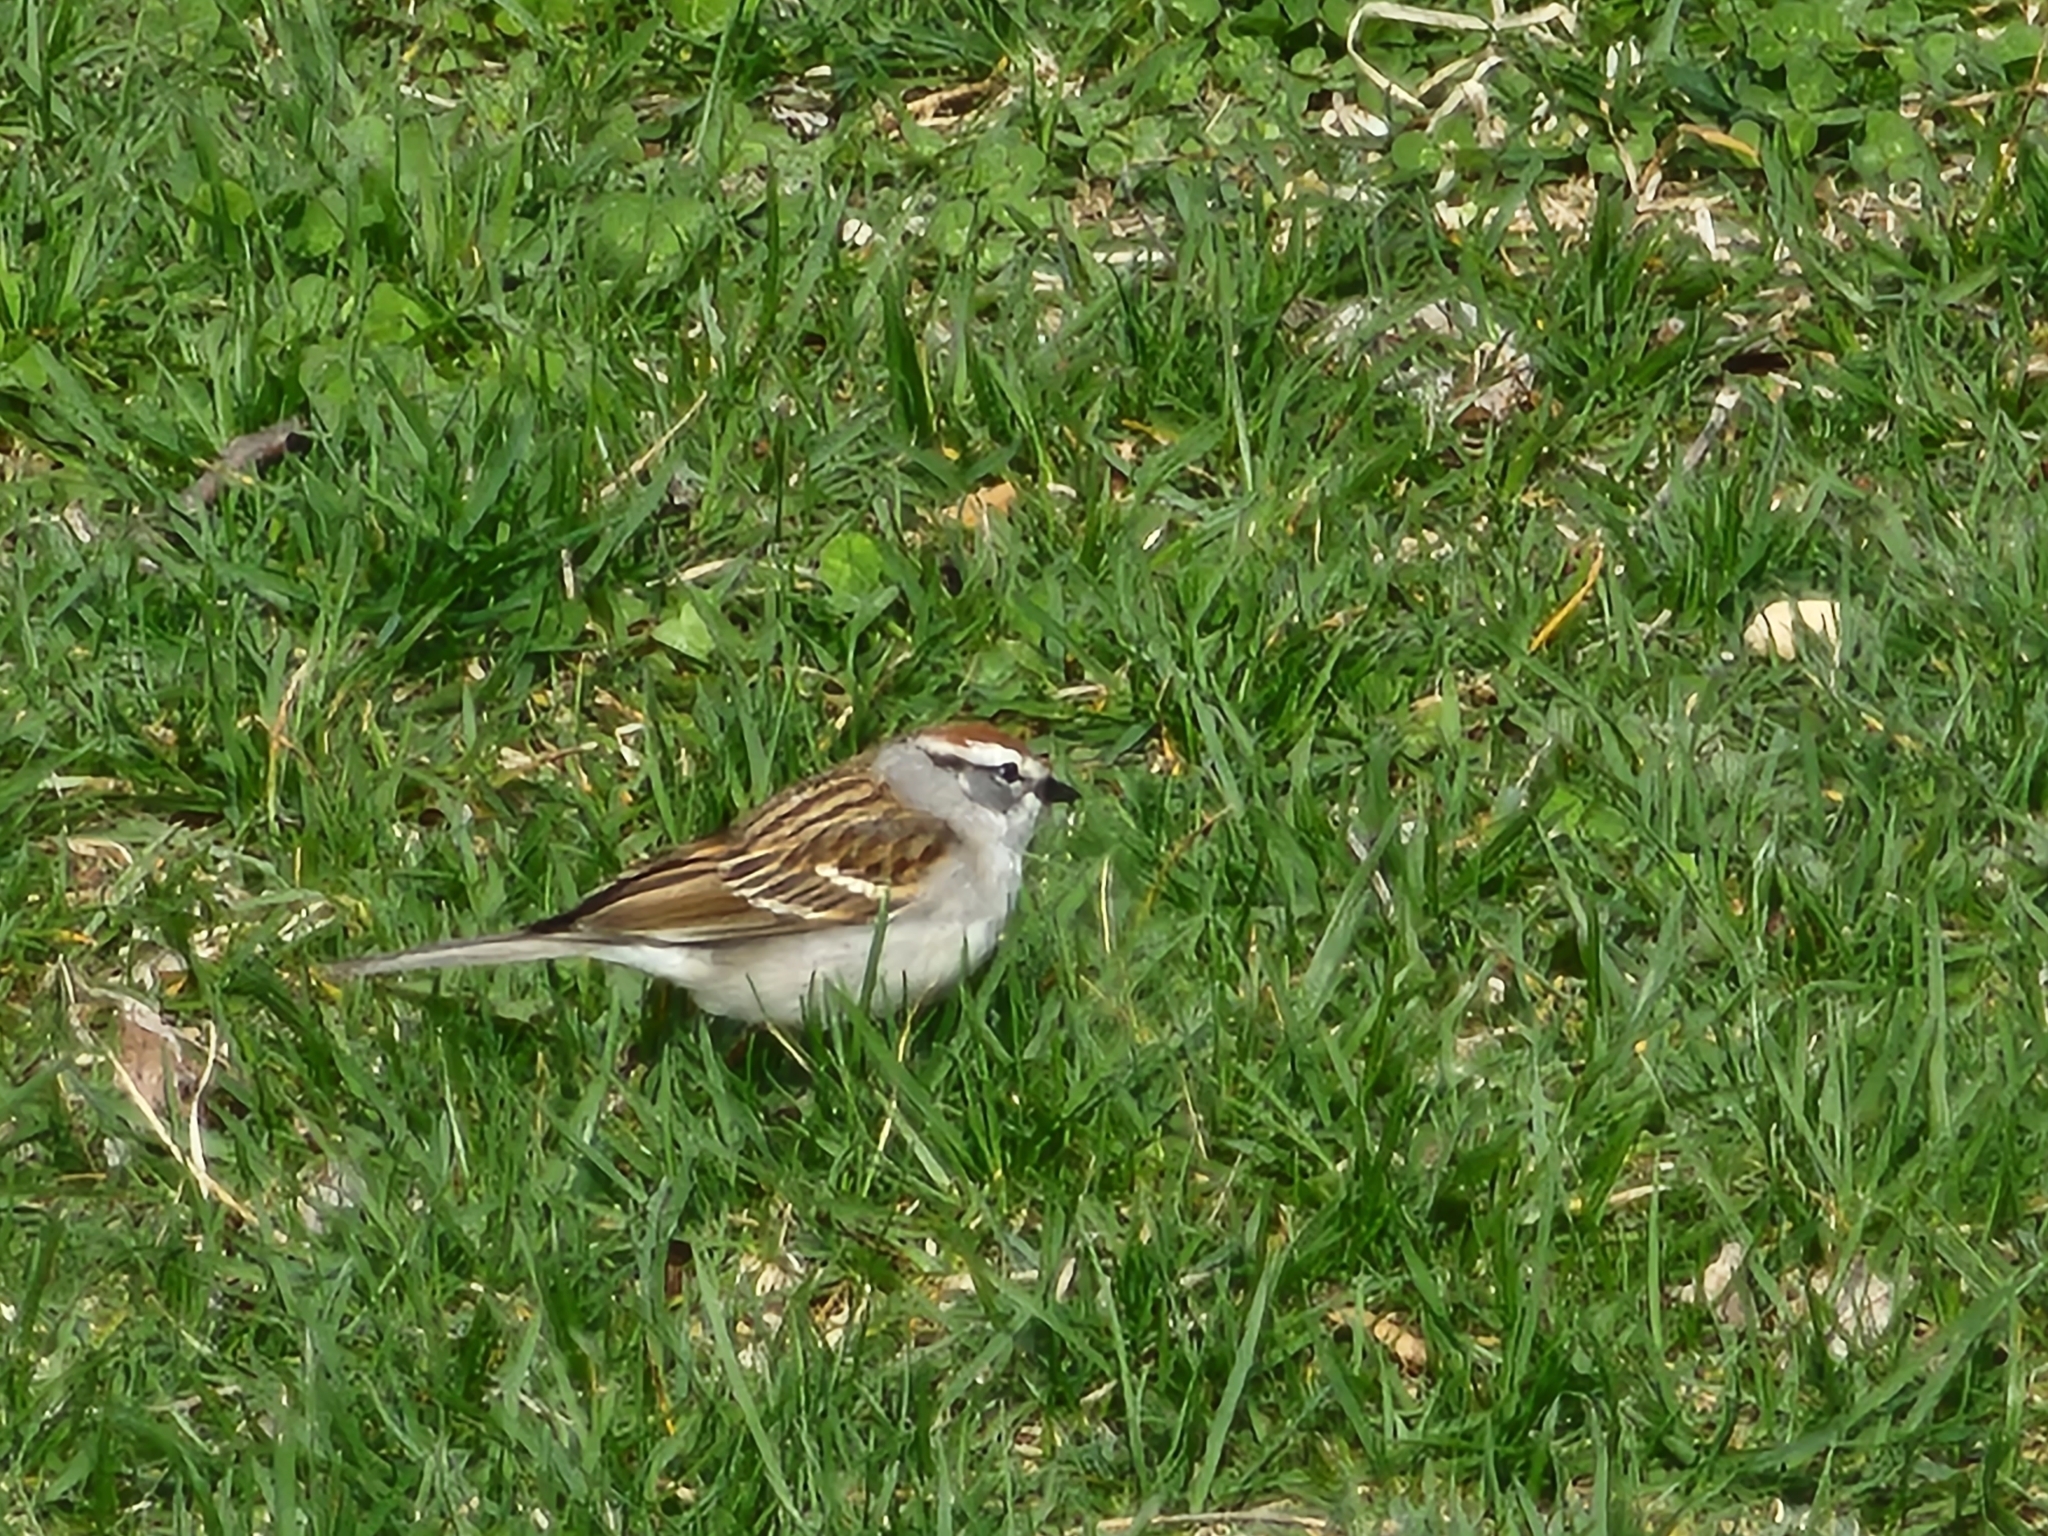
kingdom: Animalia
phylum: Chordata
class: Aves
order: Passeriformes
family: Passerellidae
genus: Spizella
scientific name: Spizella passerina
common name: Chipping sparrow
